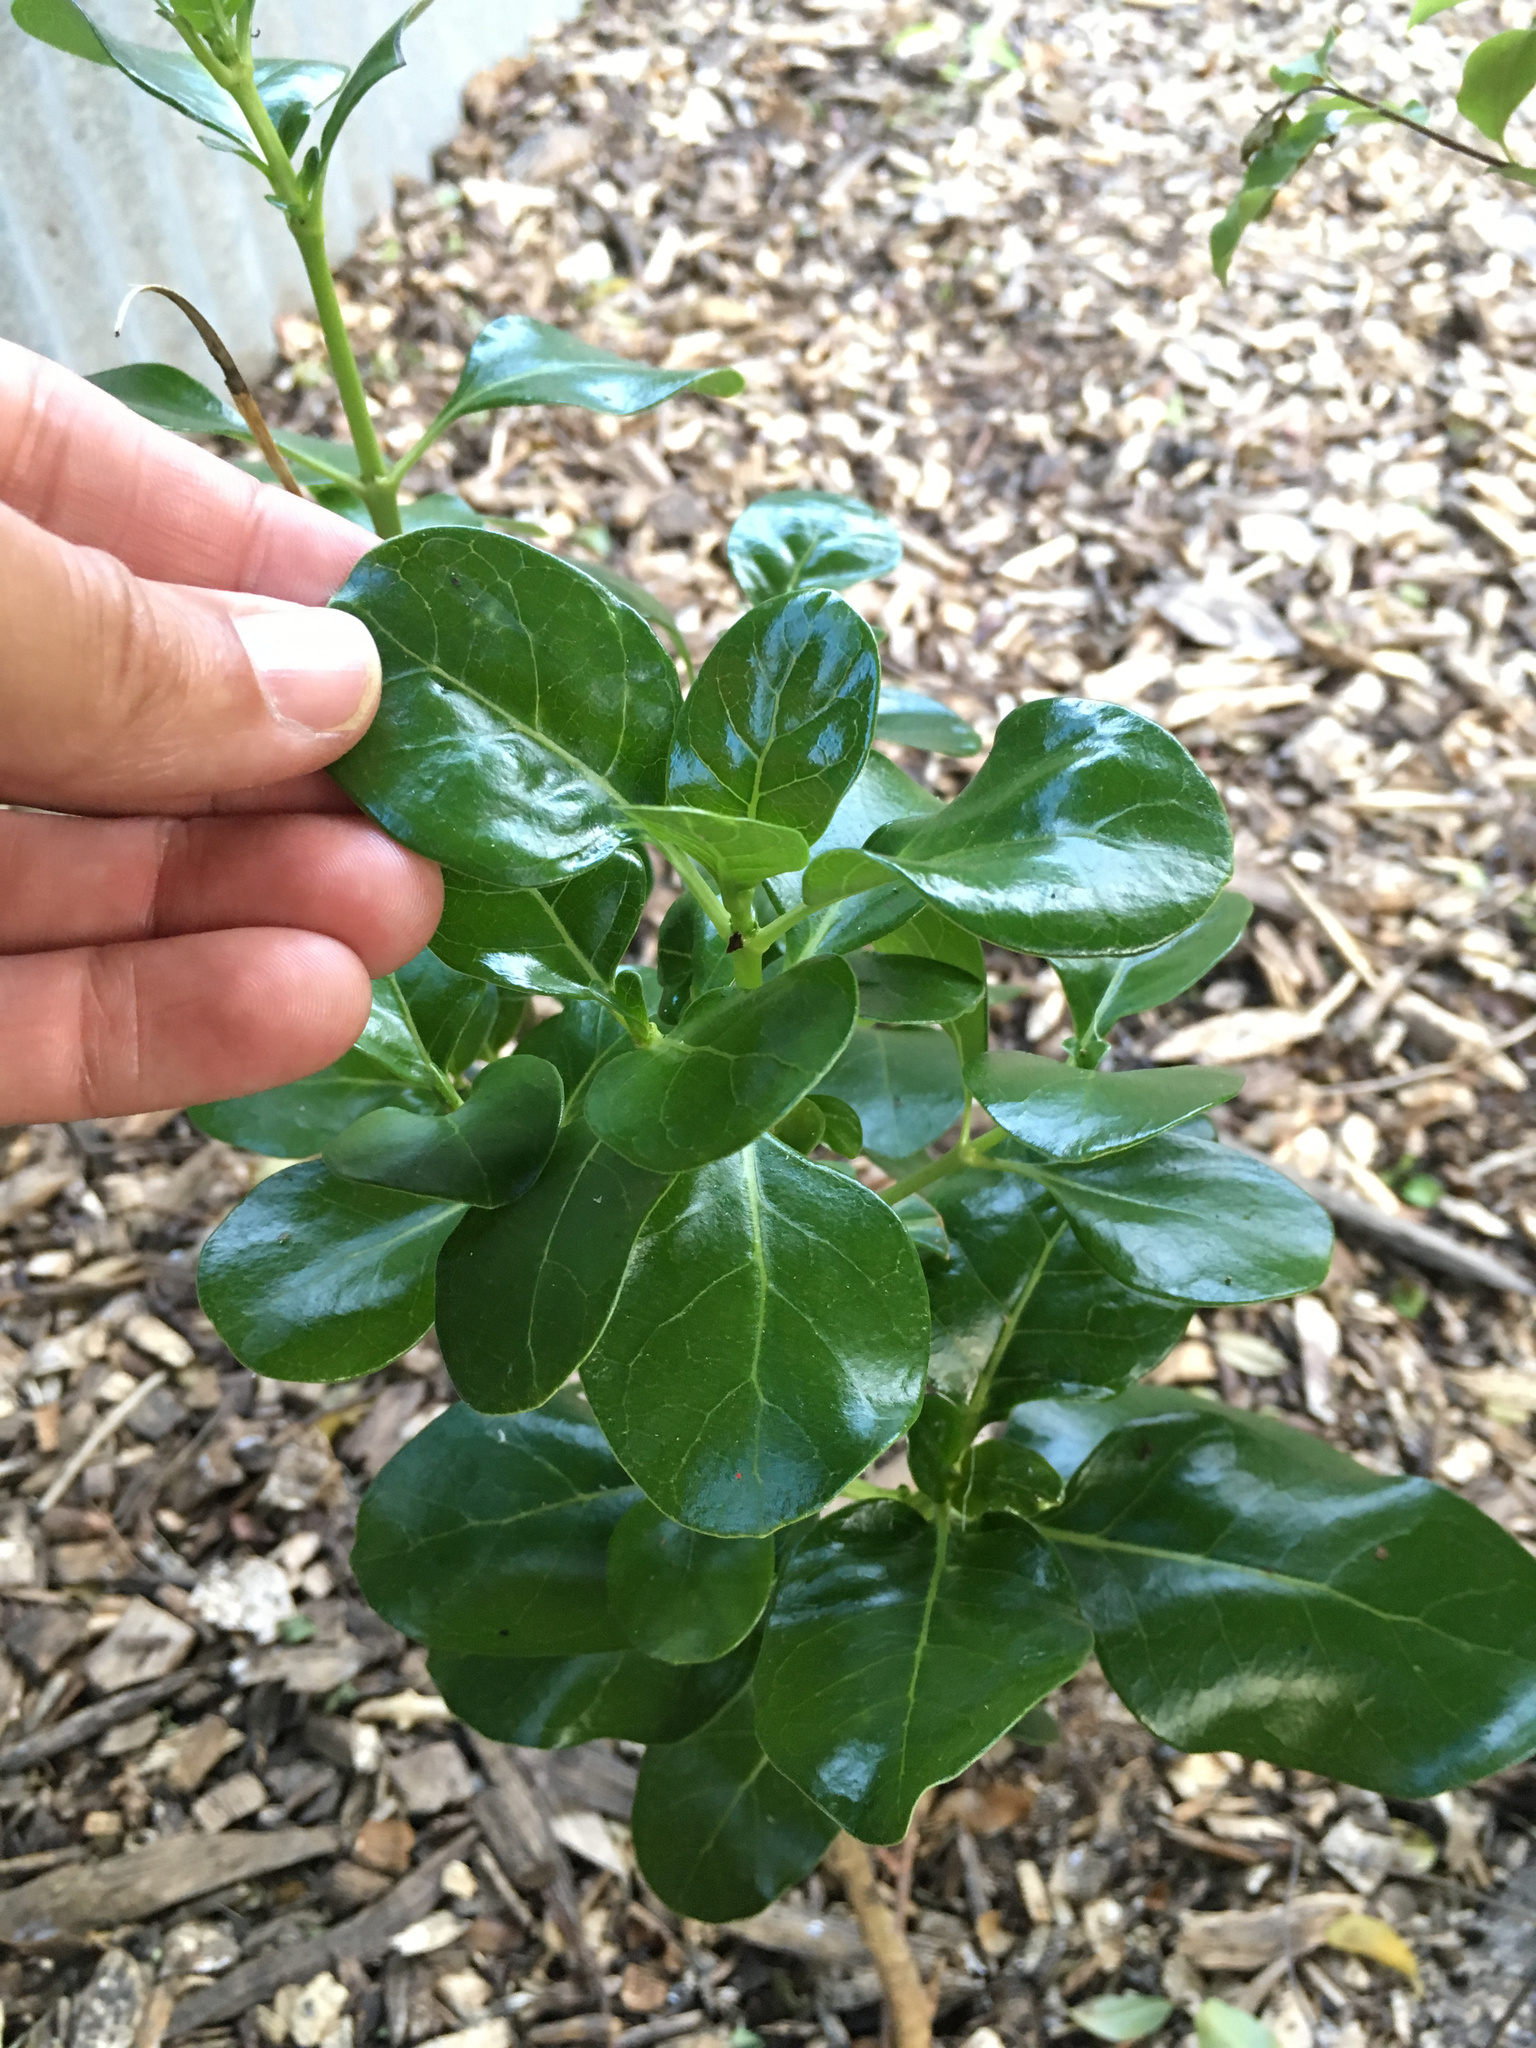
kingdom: Plantae
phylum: Tracheophyta
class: Magnoliopsida
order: Gentianales
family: Rubiaceae
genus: Coprosma
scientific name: Coprosma repens
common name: Tree bedstraw
